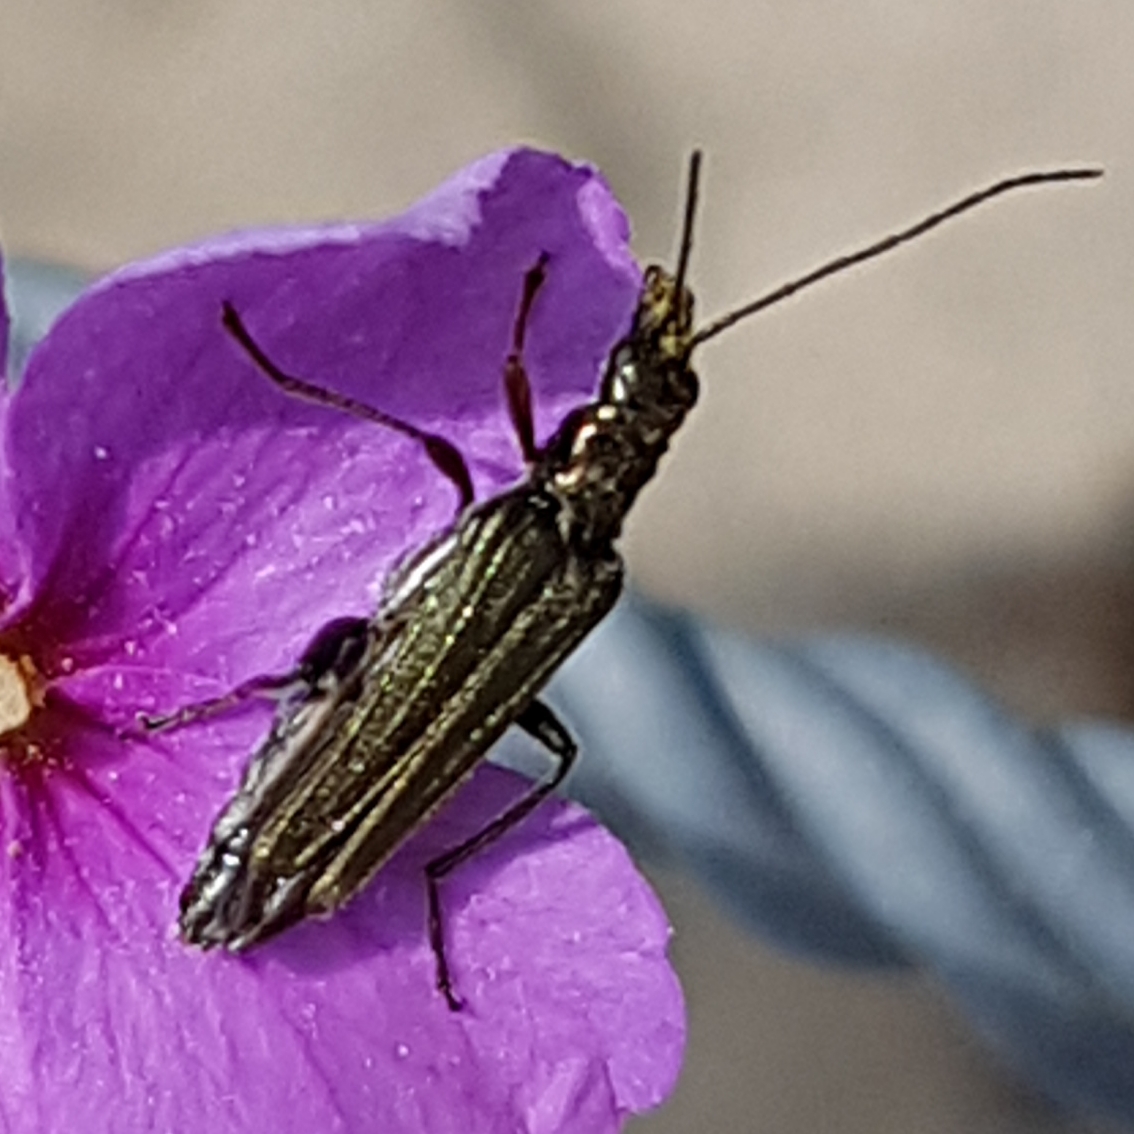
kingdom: Animalia
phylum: Arthropoda
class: Insecta
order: Coleoptera
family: Oedemeridae
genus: Oedemera
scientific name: Oedemera flavipes
